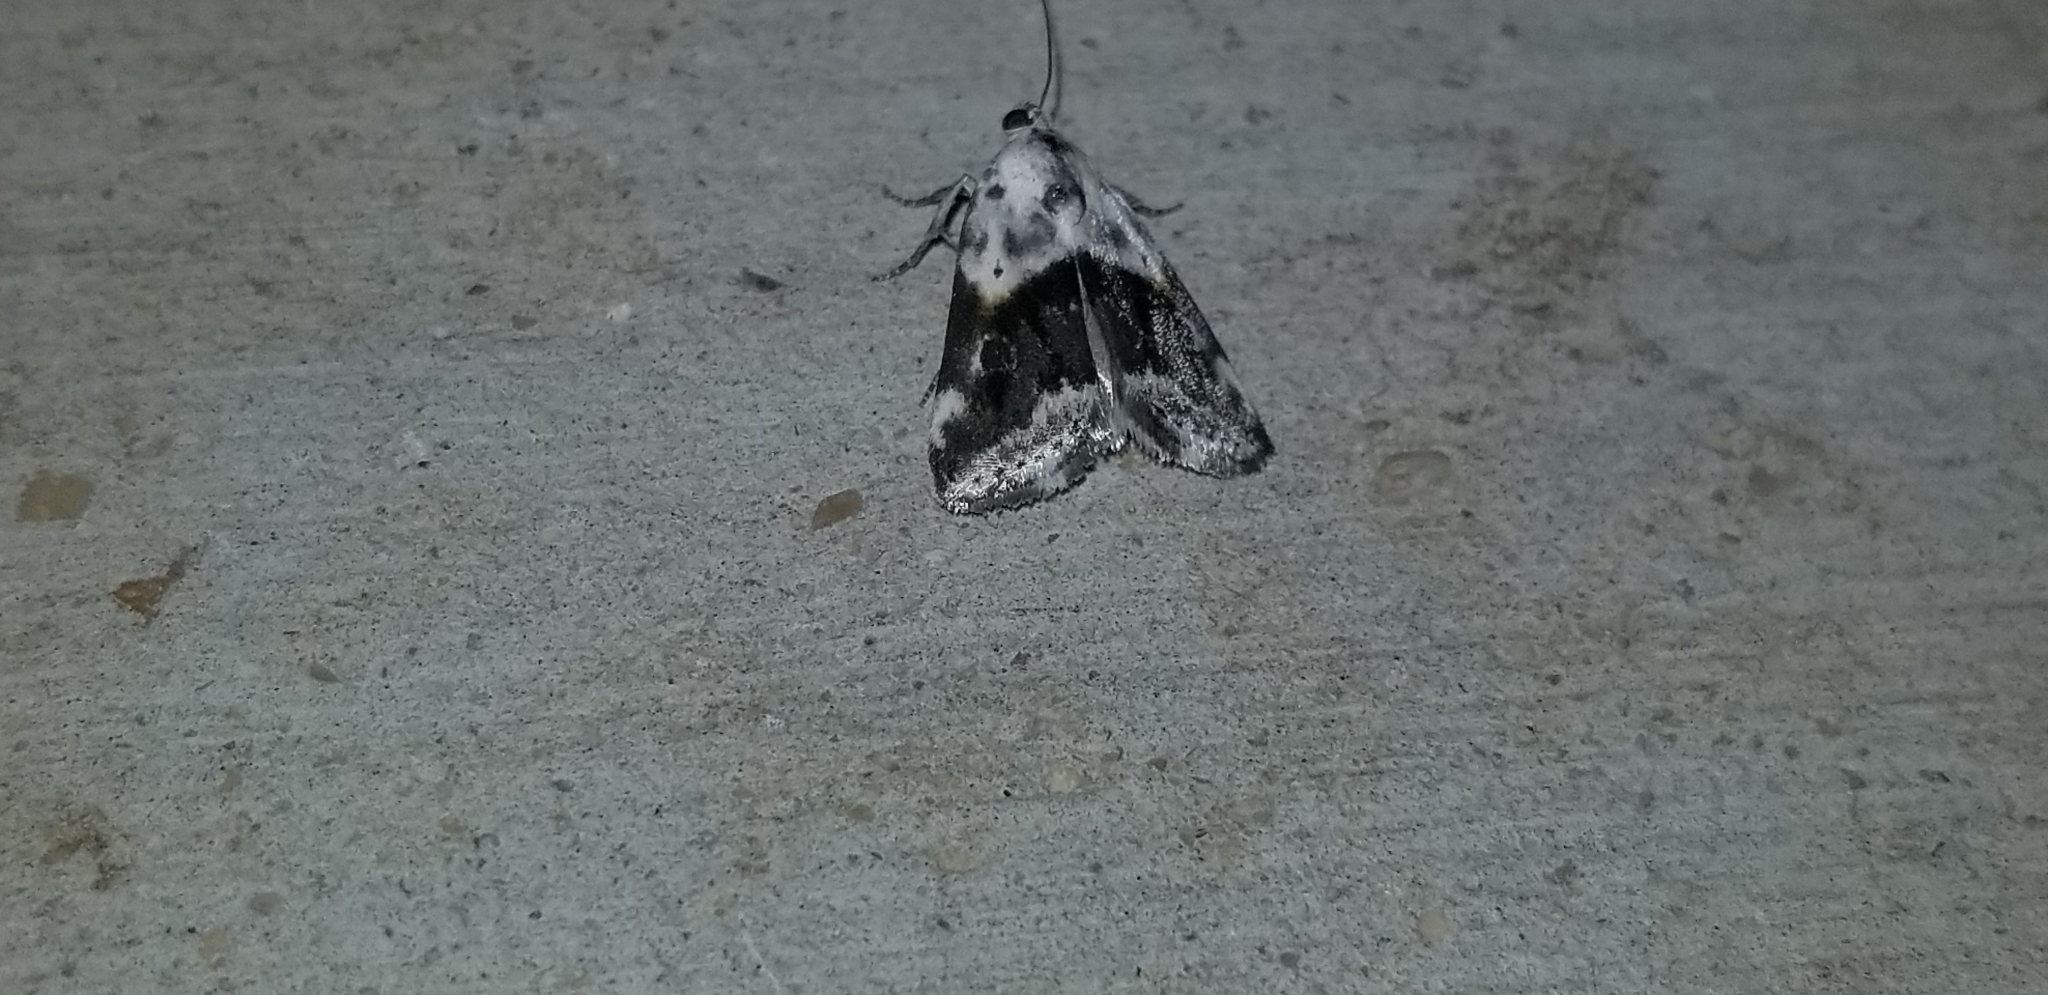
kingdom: Animalia
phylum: Arthropoda
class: Insecta
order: Lepidoptera
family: Noctuidae
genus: Nigetia
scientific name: Nigetia formosalis
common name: Thin-winged owlet
